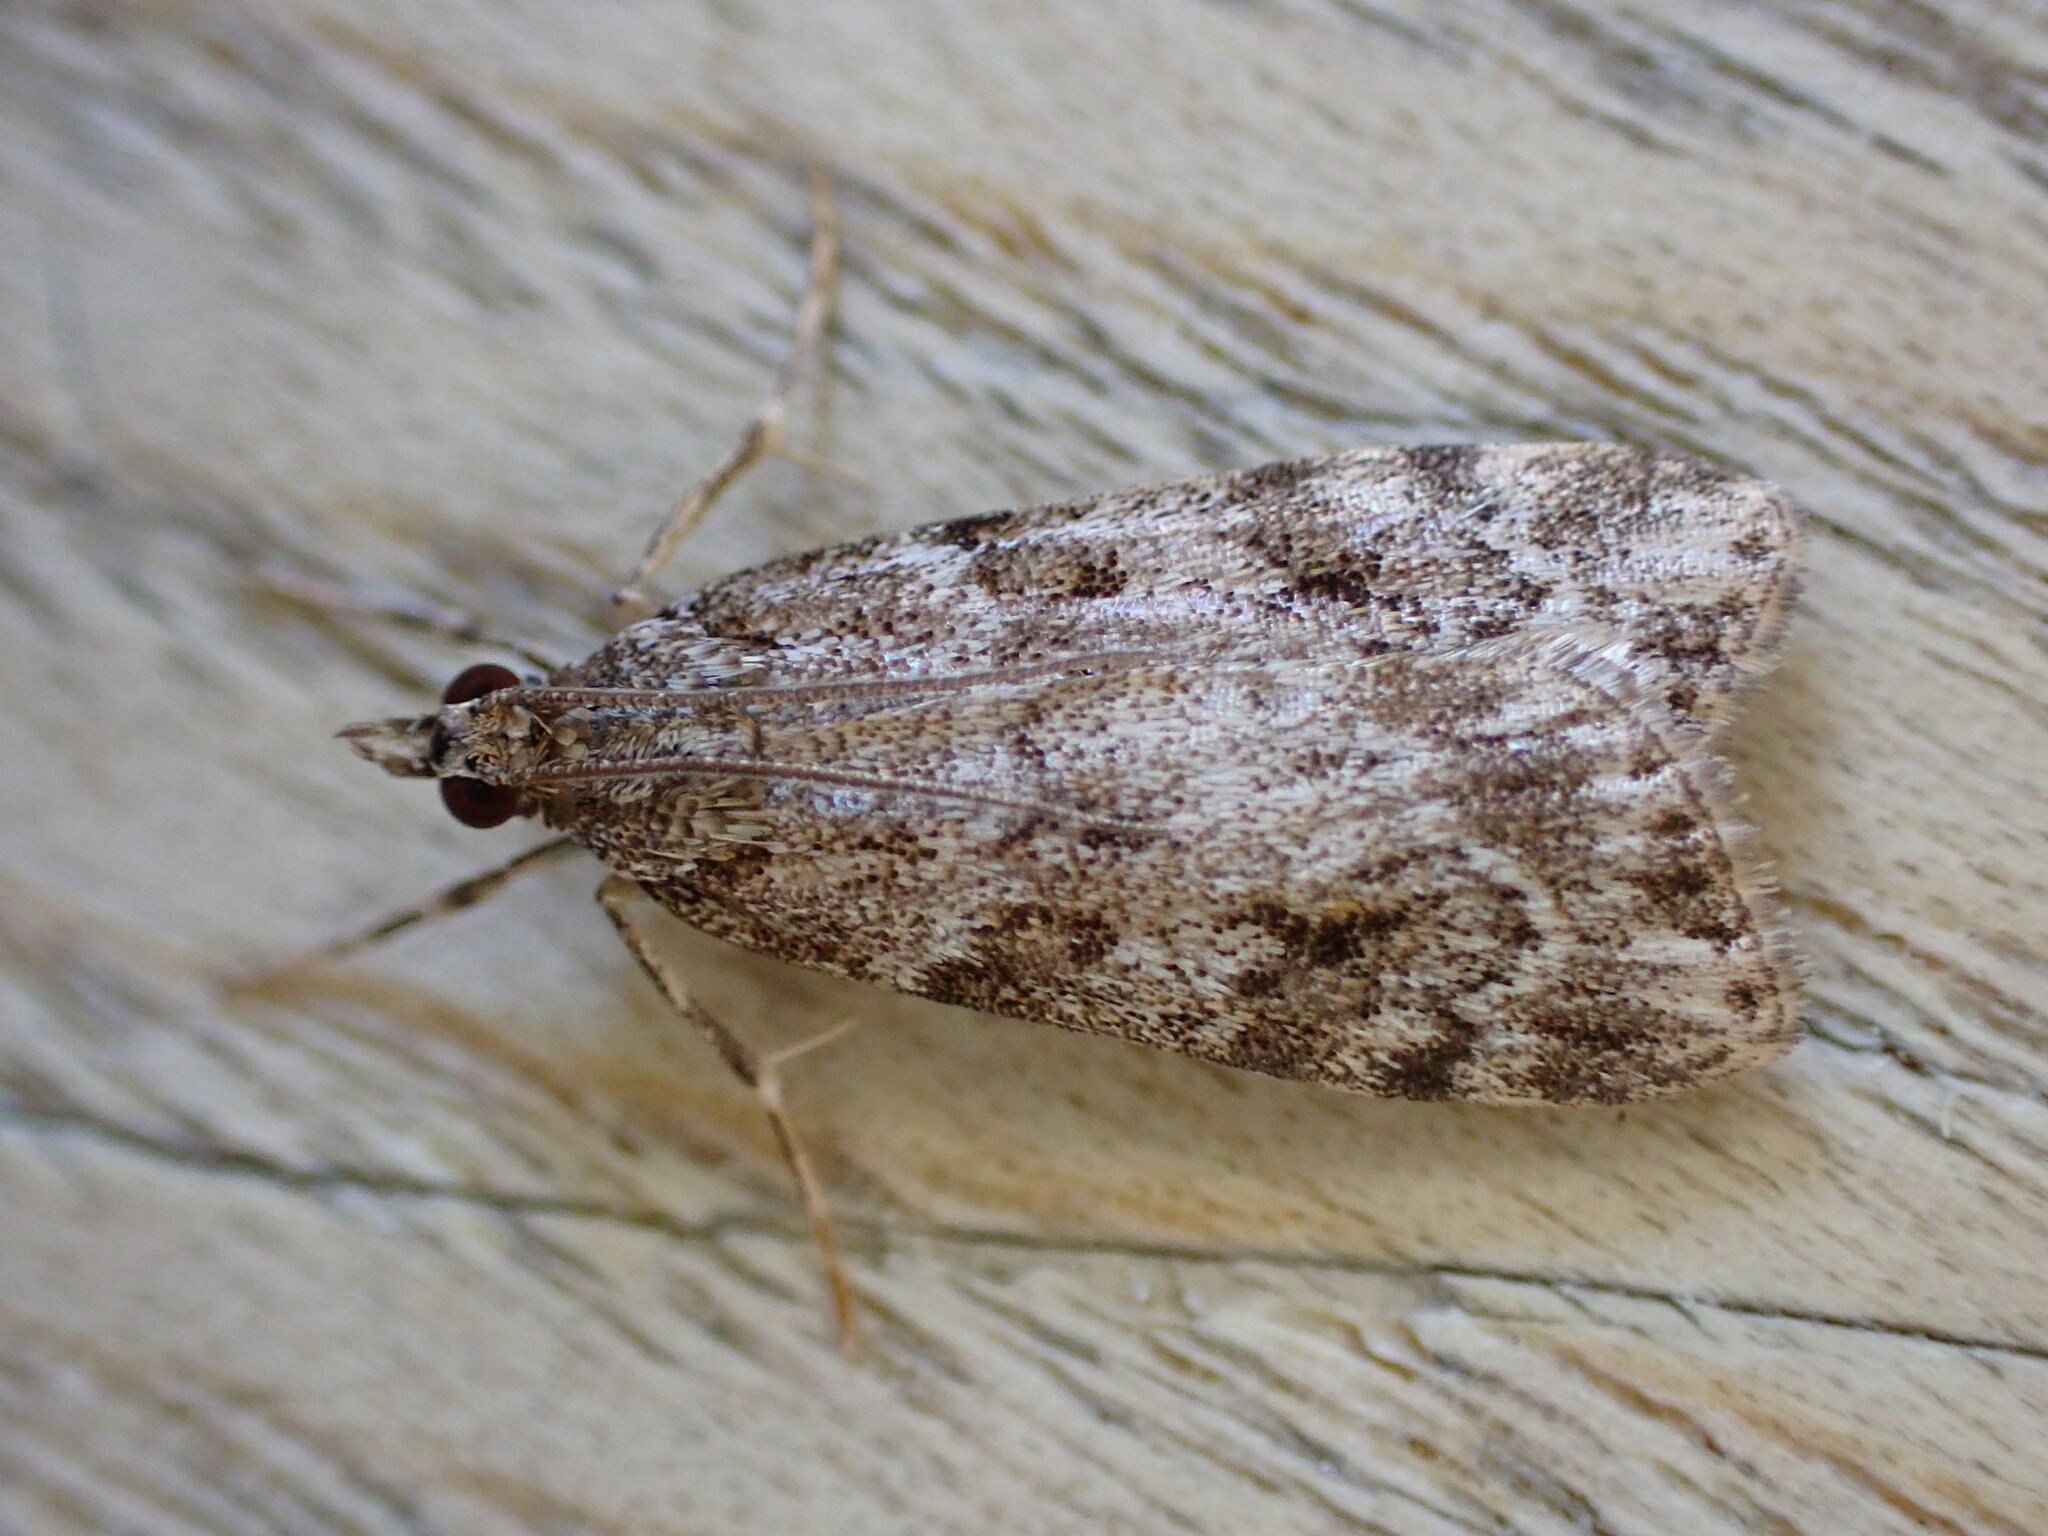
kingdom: Animalia
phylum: Arthropoda
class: Insecta
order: Lepidoptera
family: Crambidae
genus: Scoparia
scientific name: Scoparia ambigualis
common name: Common grey
